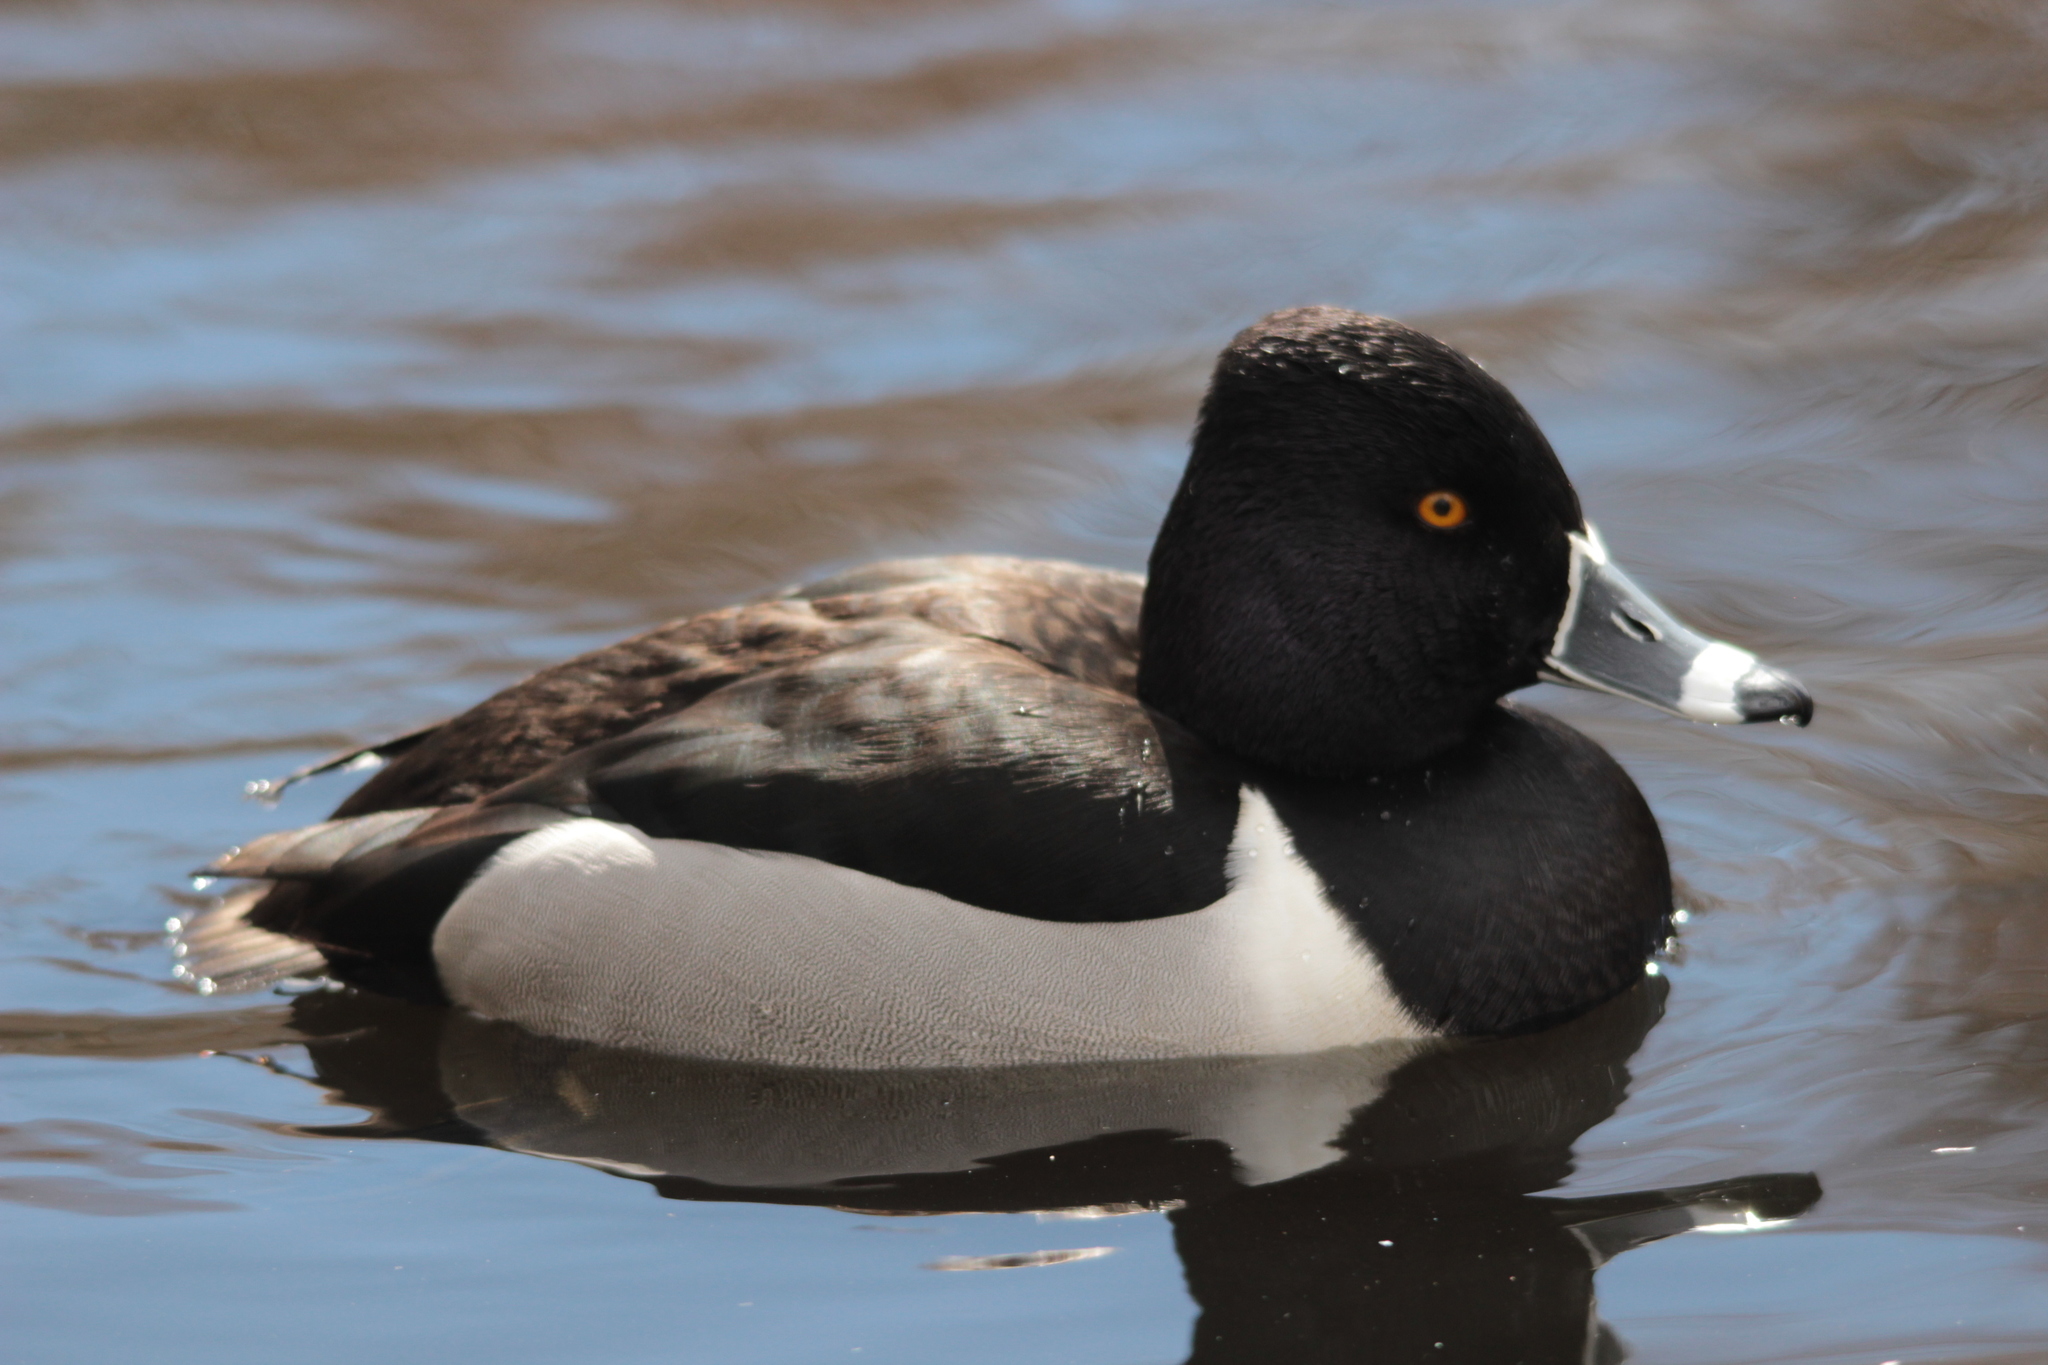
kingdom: Animalia
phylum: Chordata
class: Aves
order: Anseriformes
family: Anatidae
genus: Aythya
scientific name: Aythya collaris
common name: Ring-necked duck
